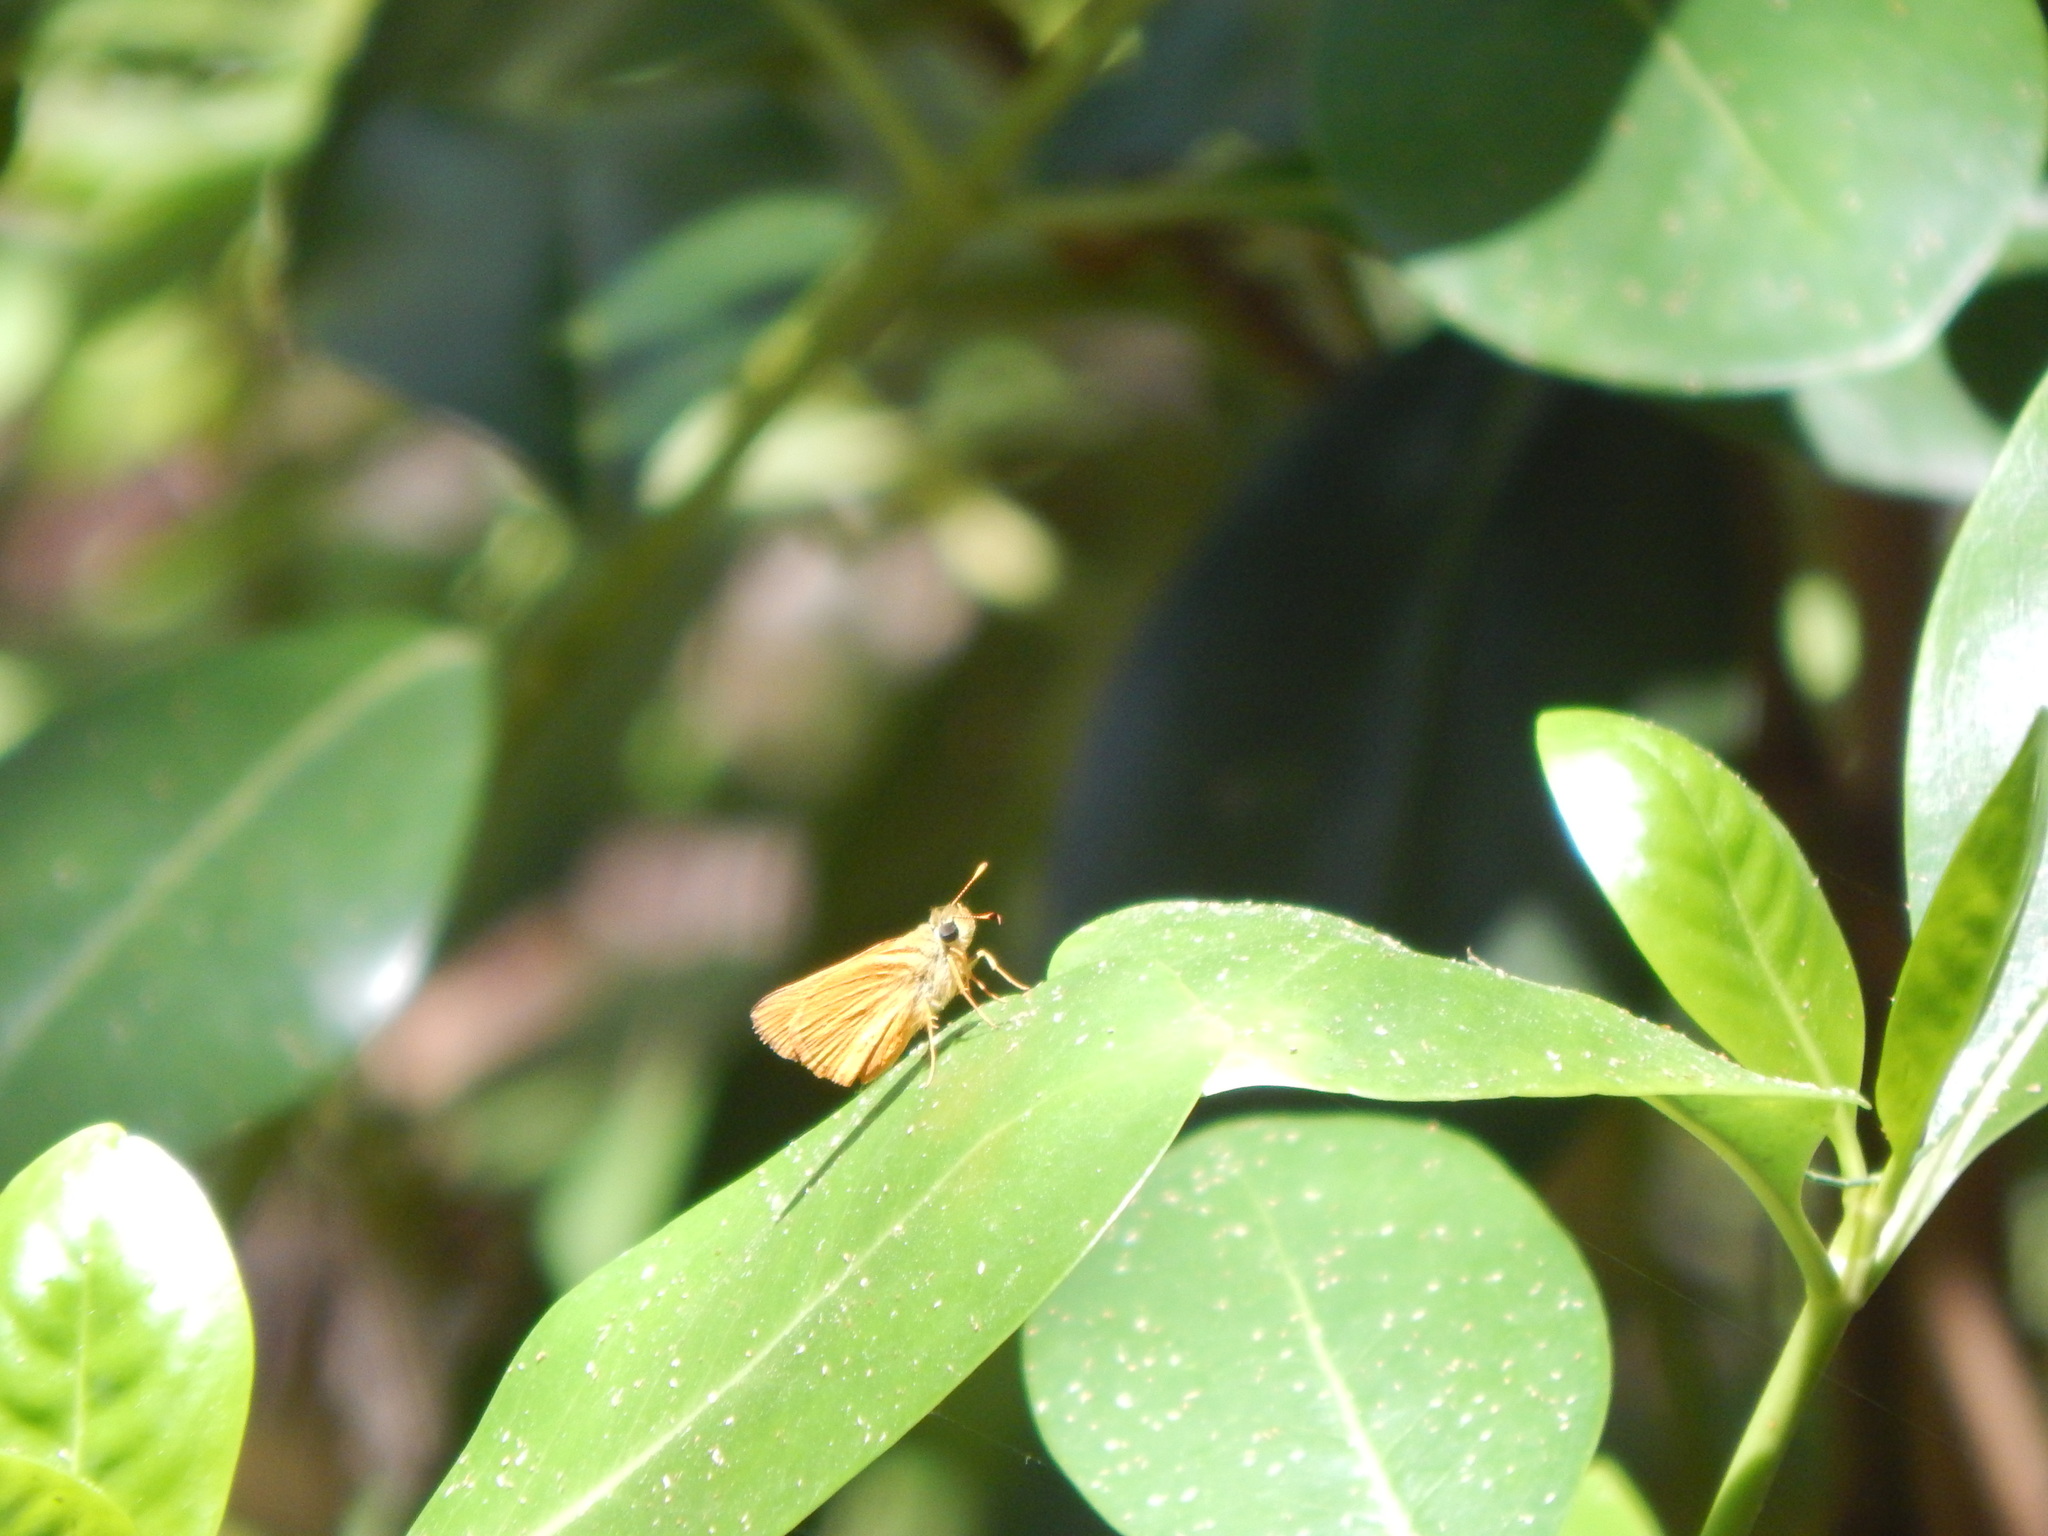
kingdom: Animalia
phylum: Arthropoda
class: Insecta
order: Lepidoptera
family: Hesperiidae
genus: Choranthus
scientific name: Choranthus vitellius
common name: Vitellius skipper
